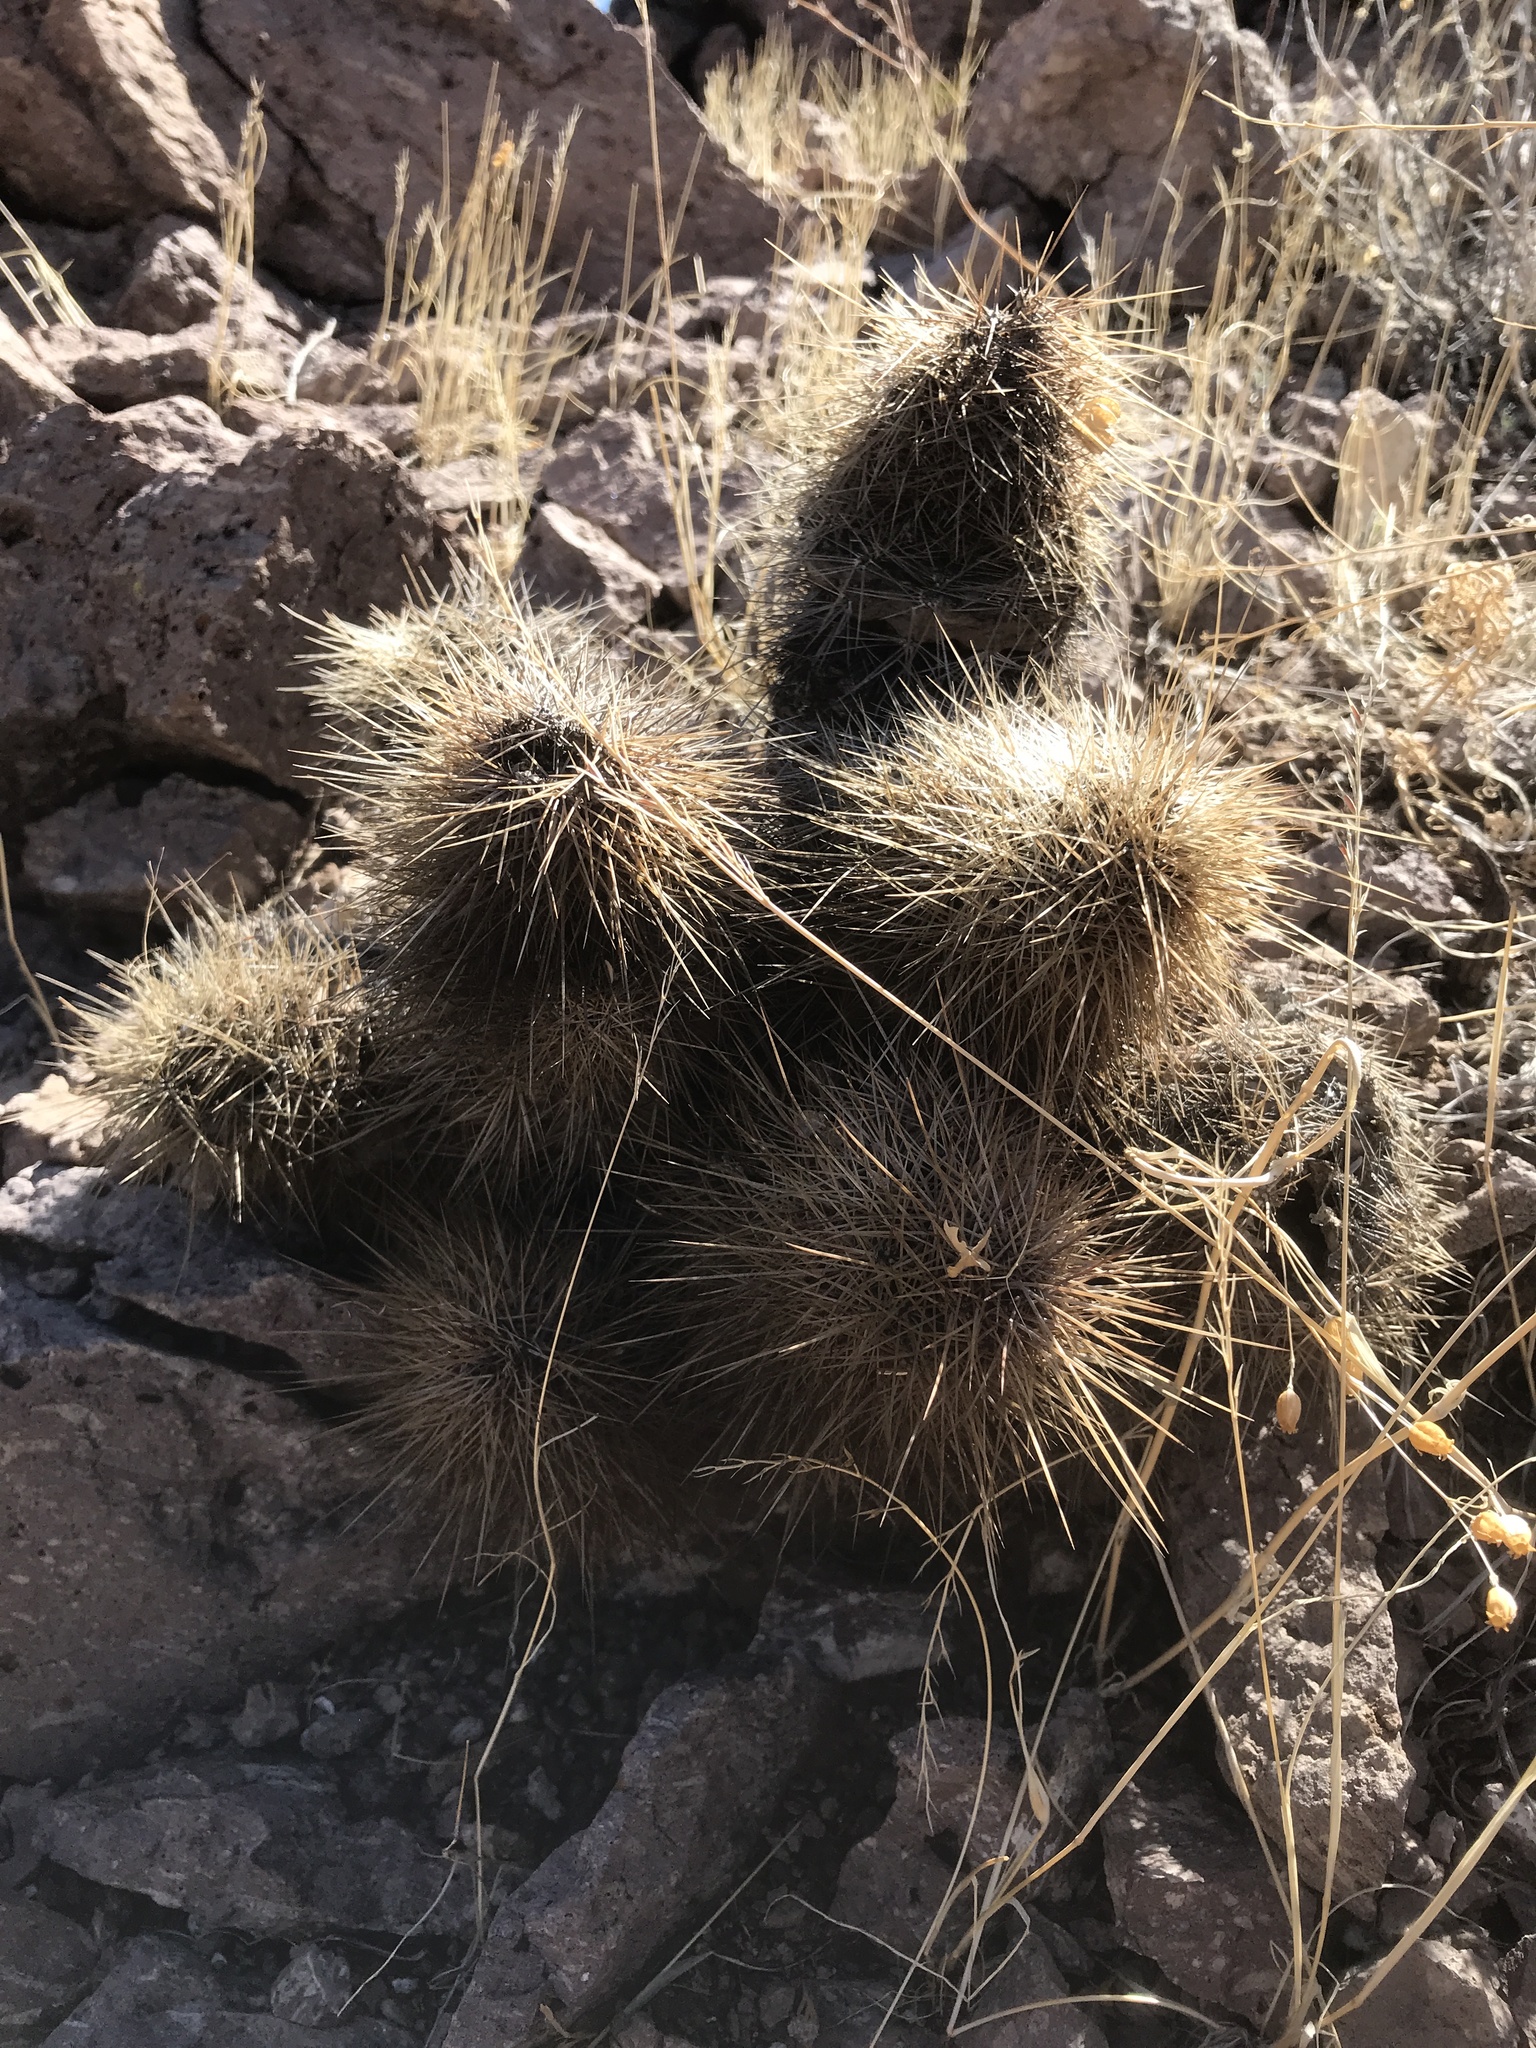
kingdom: Plantae
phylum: Tracheophyta
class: Magnoliopsida
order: Caryophyllales
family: Cactaceae
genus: Echinocereus
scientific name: Echinocereus coccineus
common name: Scarlet hedgehog cactus
